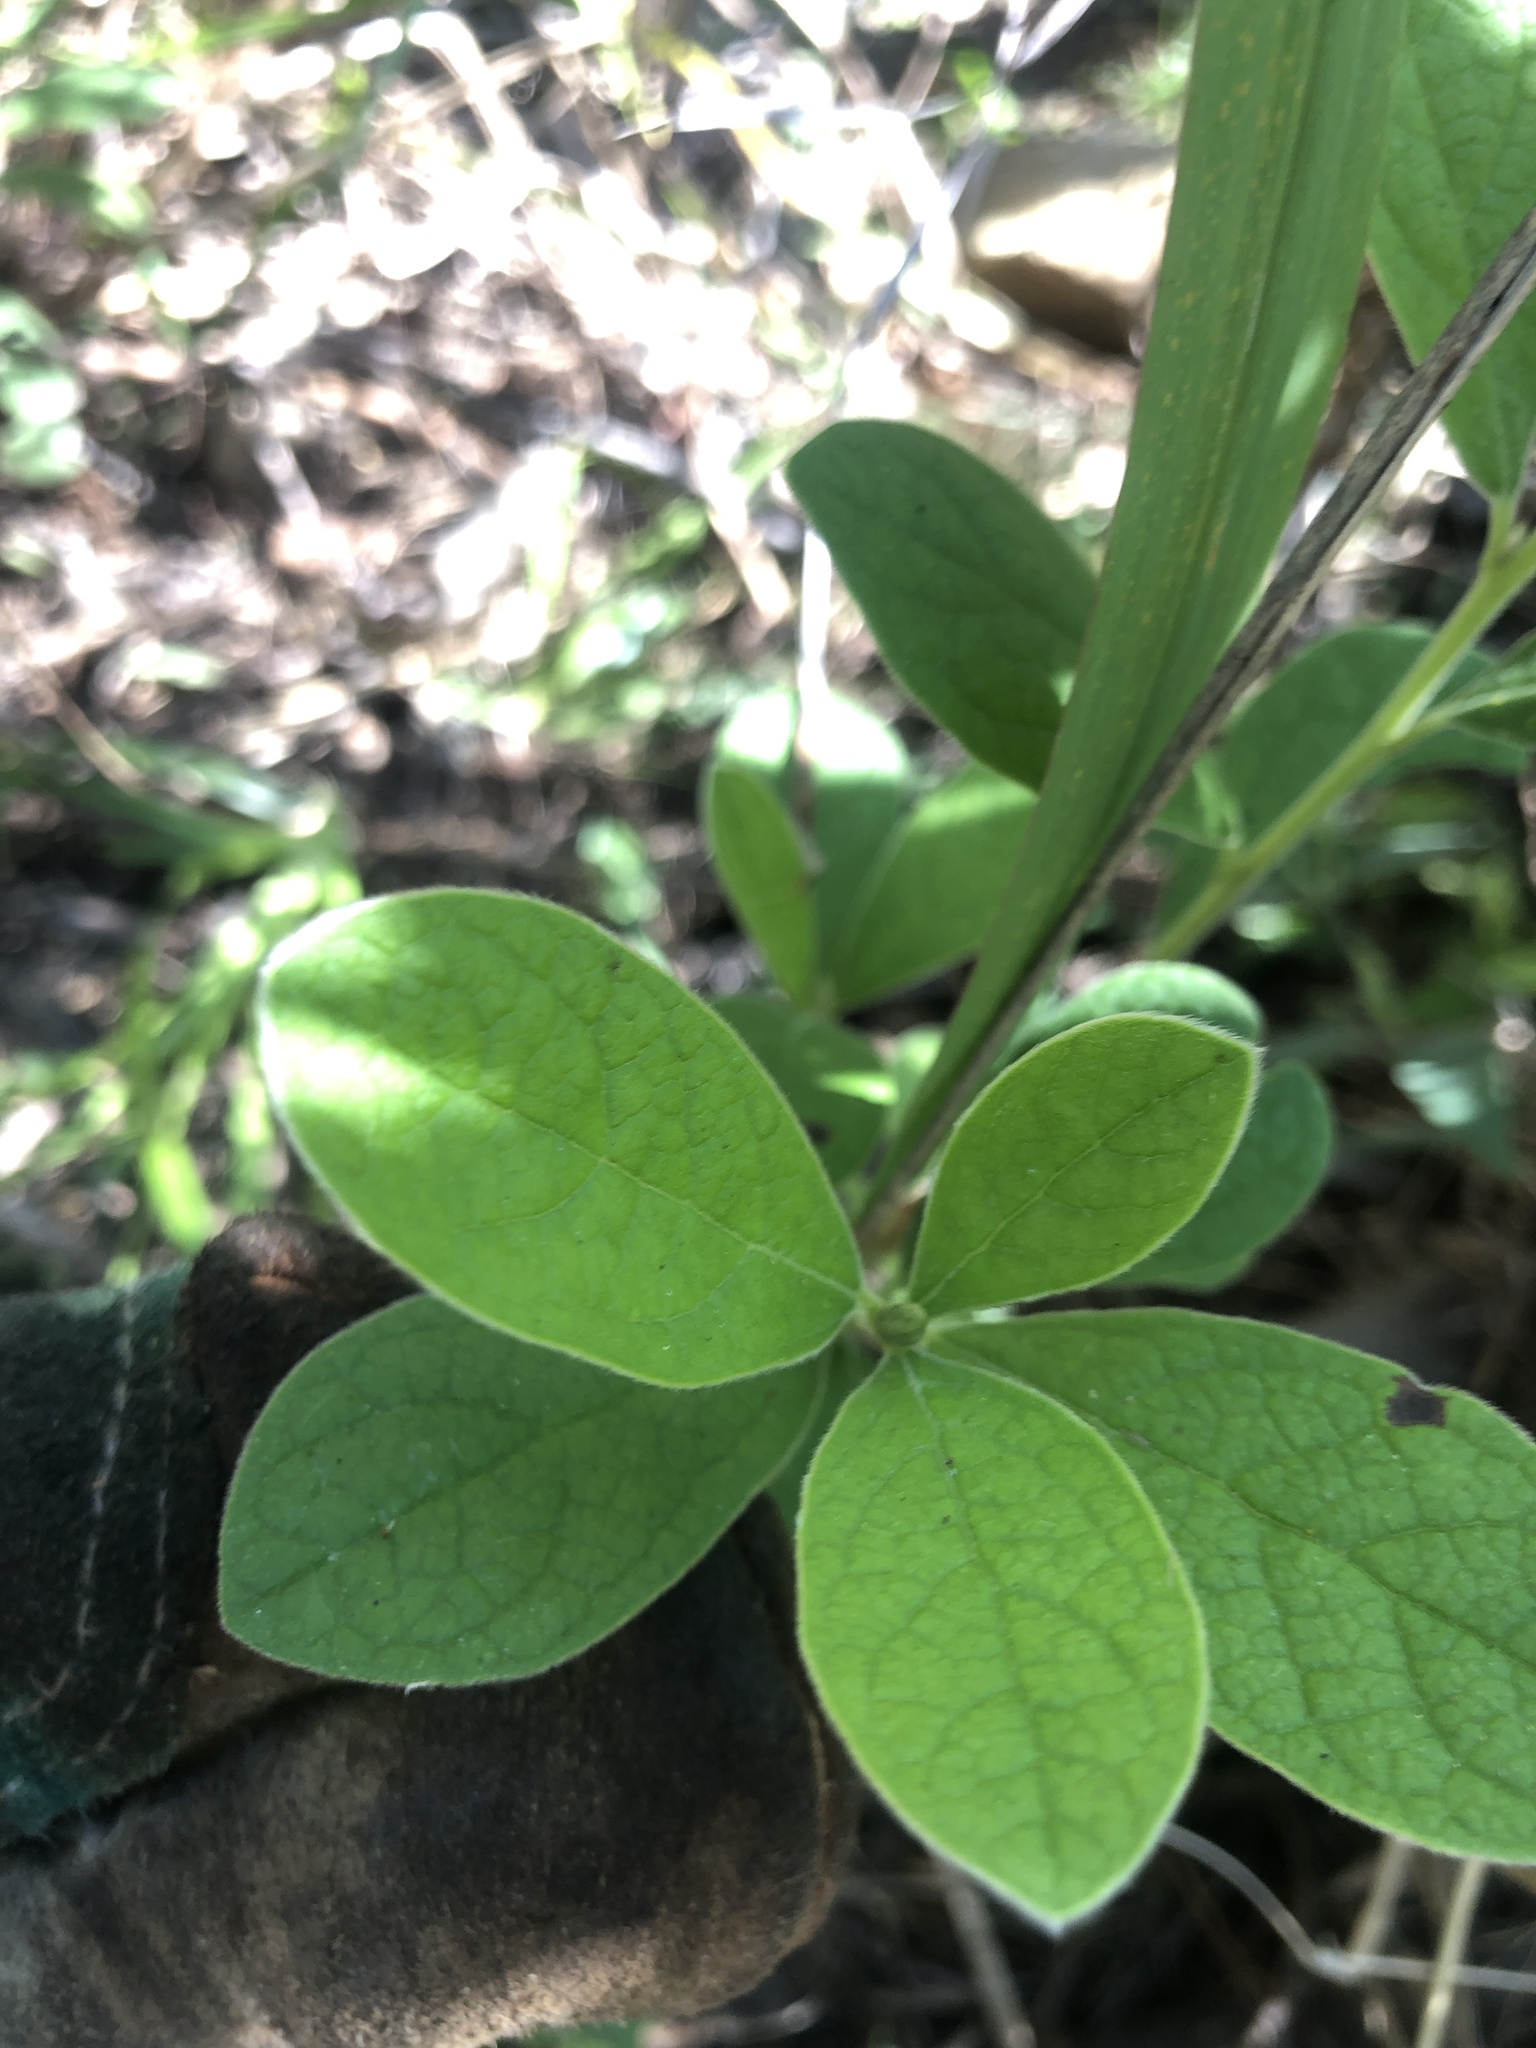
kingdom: Plantae
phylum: Tracheophyta
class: Magnoliopsida
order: Ericales
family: Ebenaceae
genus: Diospyros
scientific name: Diospyros lycioides
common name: Red star apple
